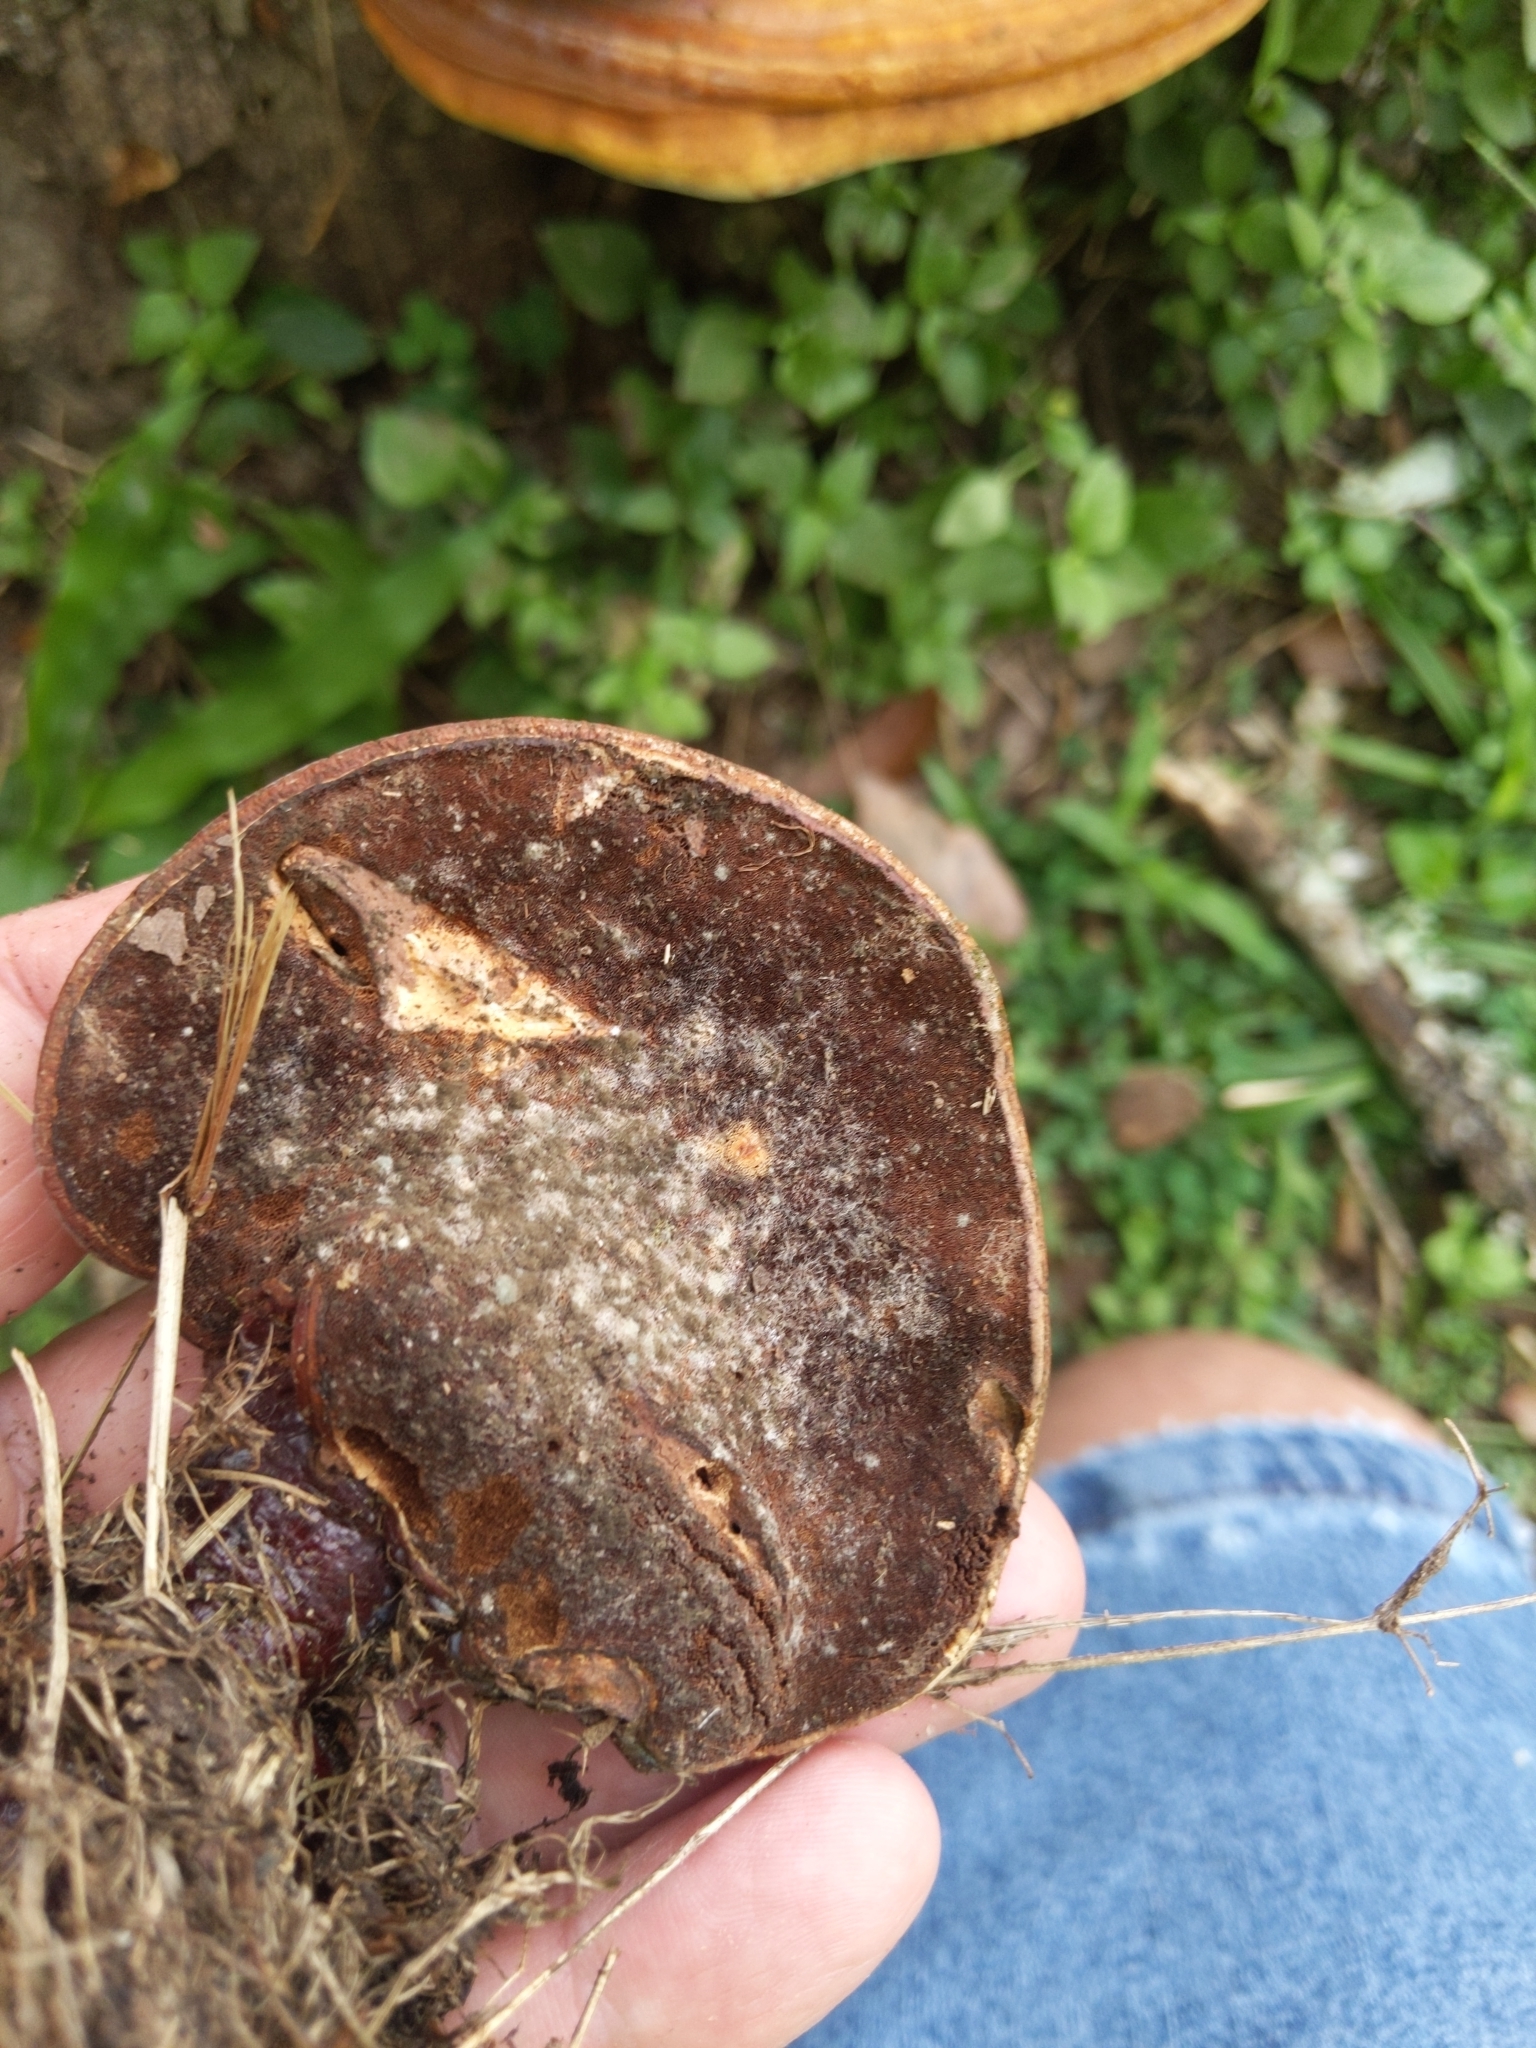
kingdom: Fungi
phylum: Basidiomycota
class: Agaricomycetes
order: Polyporales
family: Polyporaceae
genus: Ganoderma
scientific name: Ganoderma curtisii
